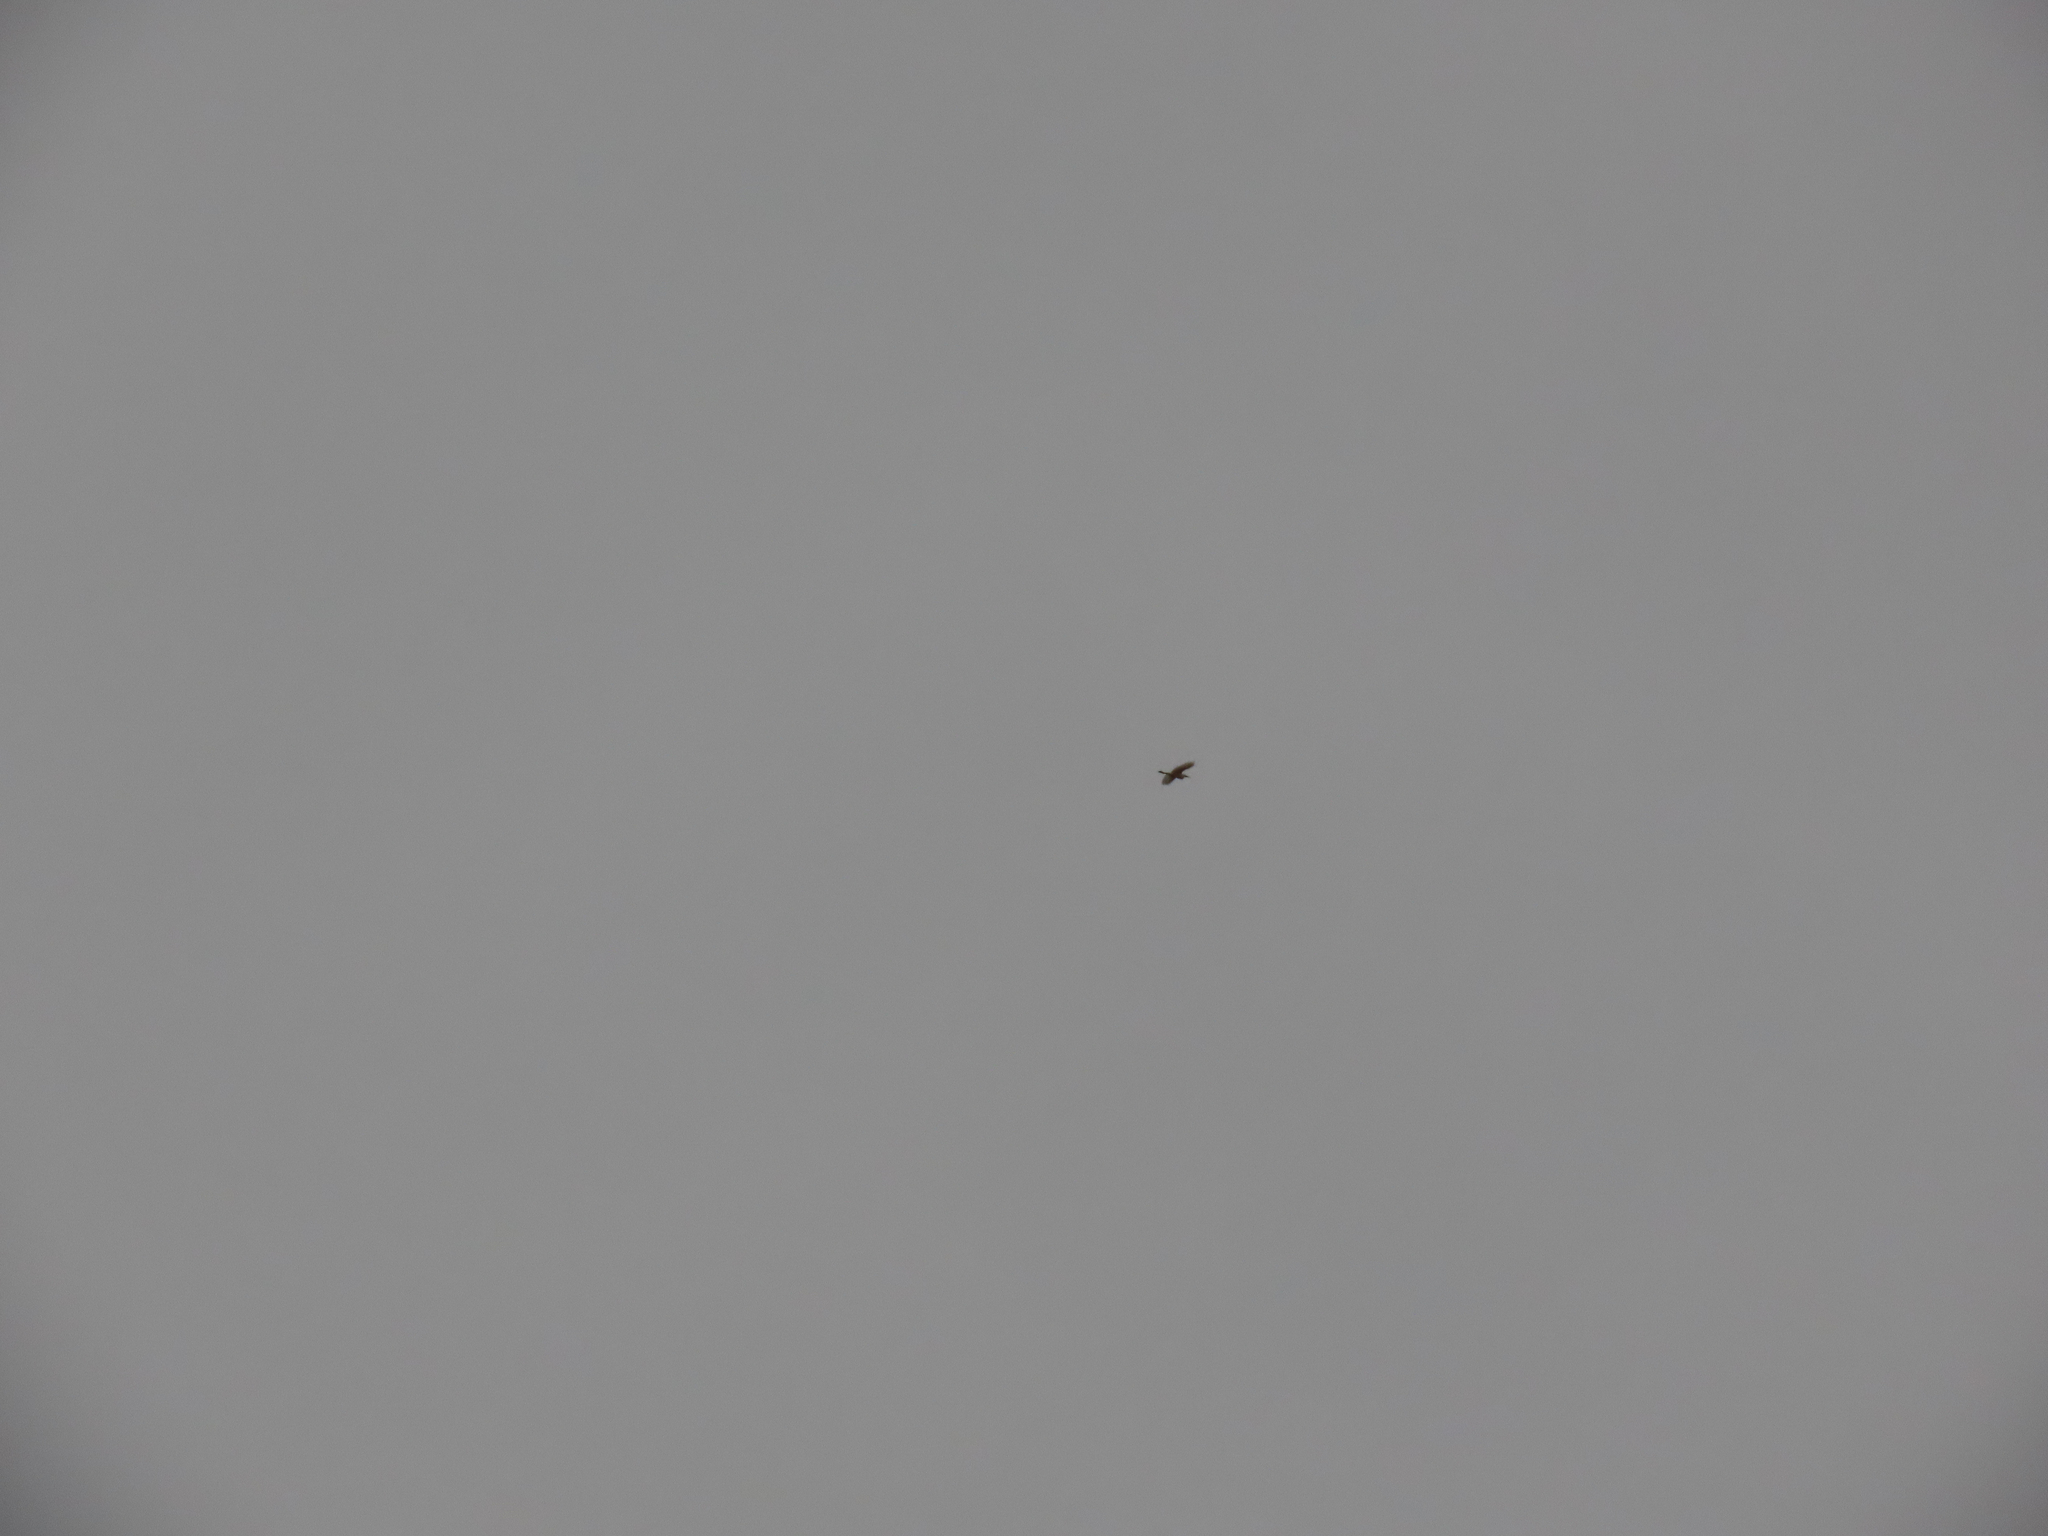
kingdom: Animalia
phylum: Chordata
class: Aves
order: Pelecaniformes
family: Ardeidae
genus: Bubulcus
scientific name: Bubulcus ibis
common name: Cattle egret
